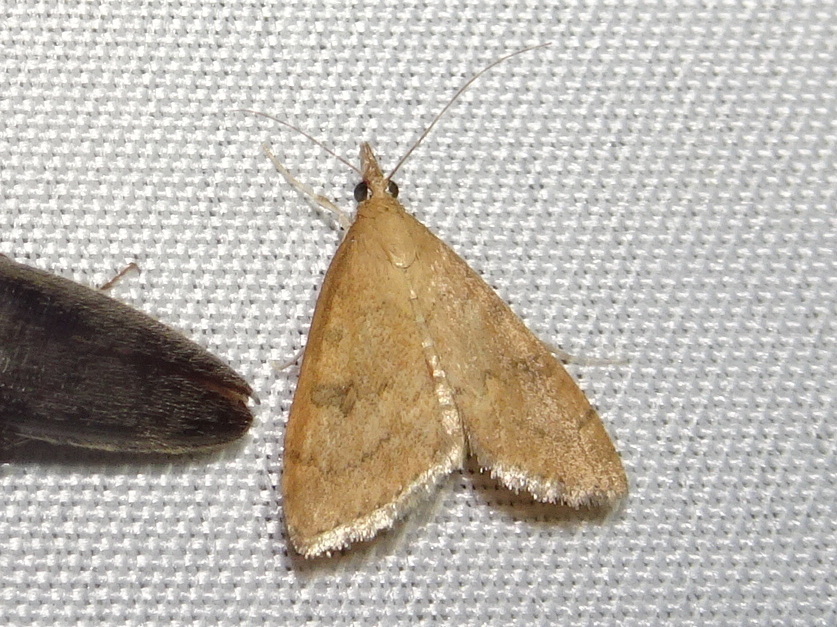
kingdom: Animalia
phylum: Arthropoda
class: Insecta
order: Lepidoptera
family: Crambidae
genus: Udea
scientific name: Udea rubigalis
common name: Celery leaftier moth
